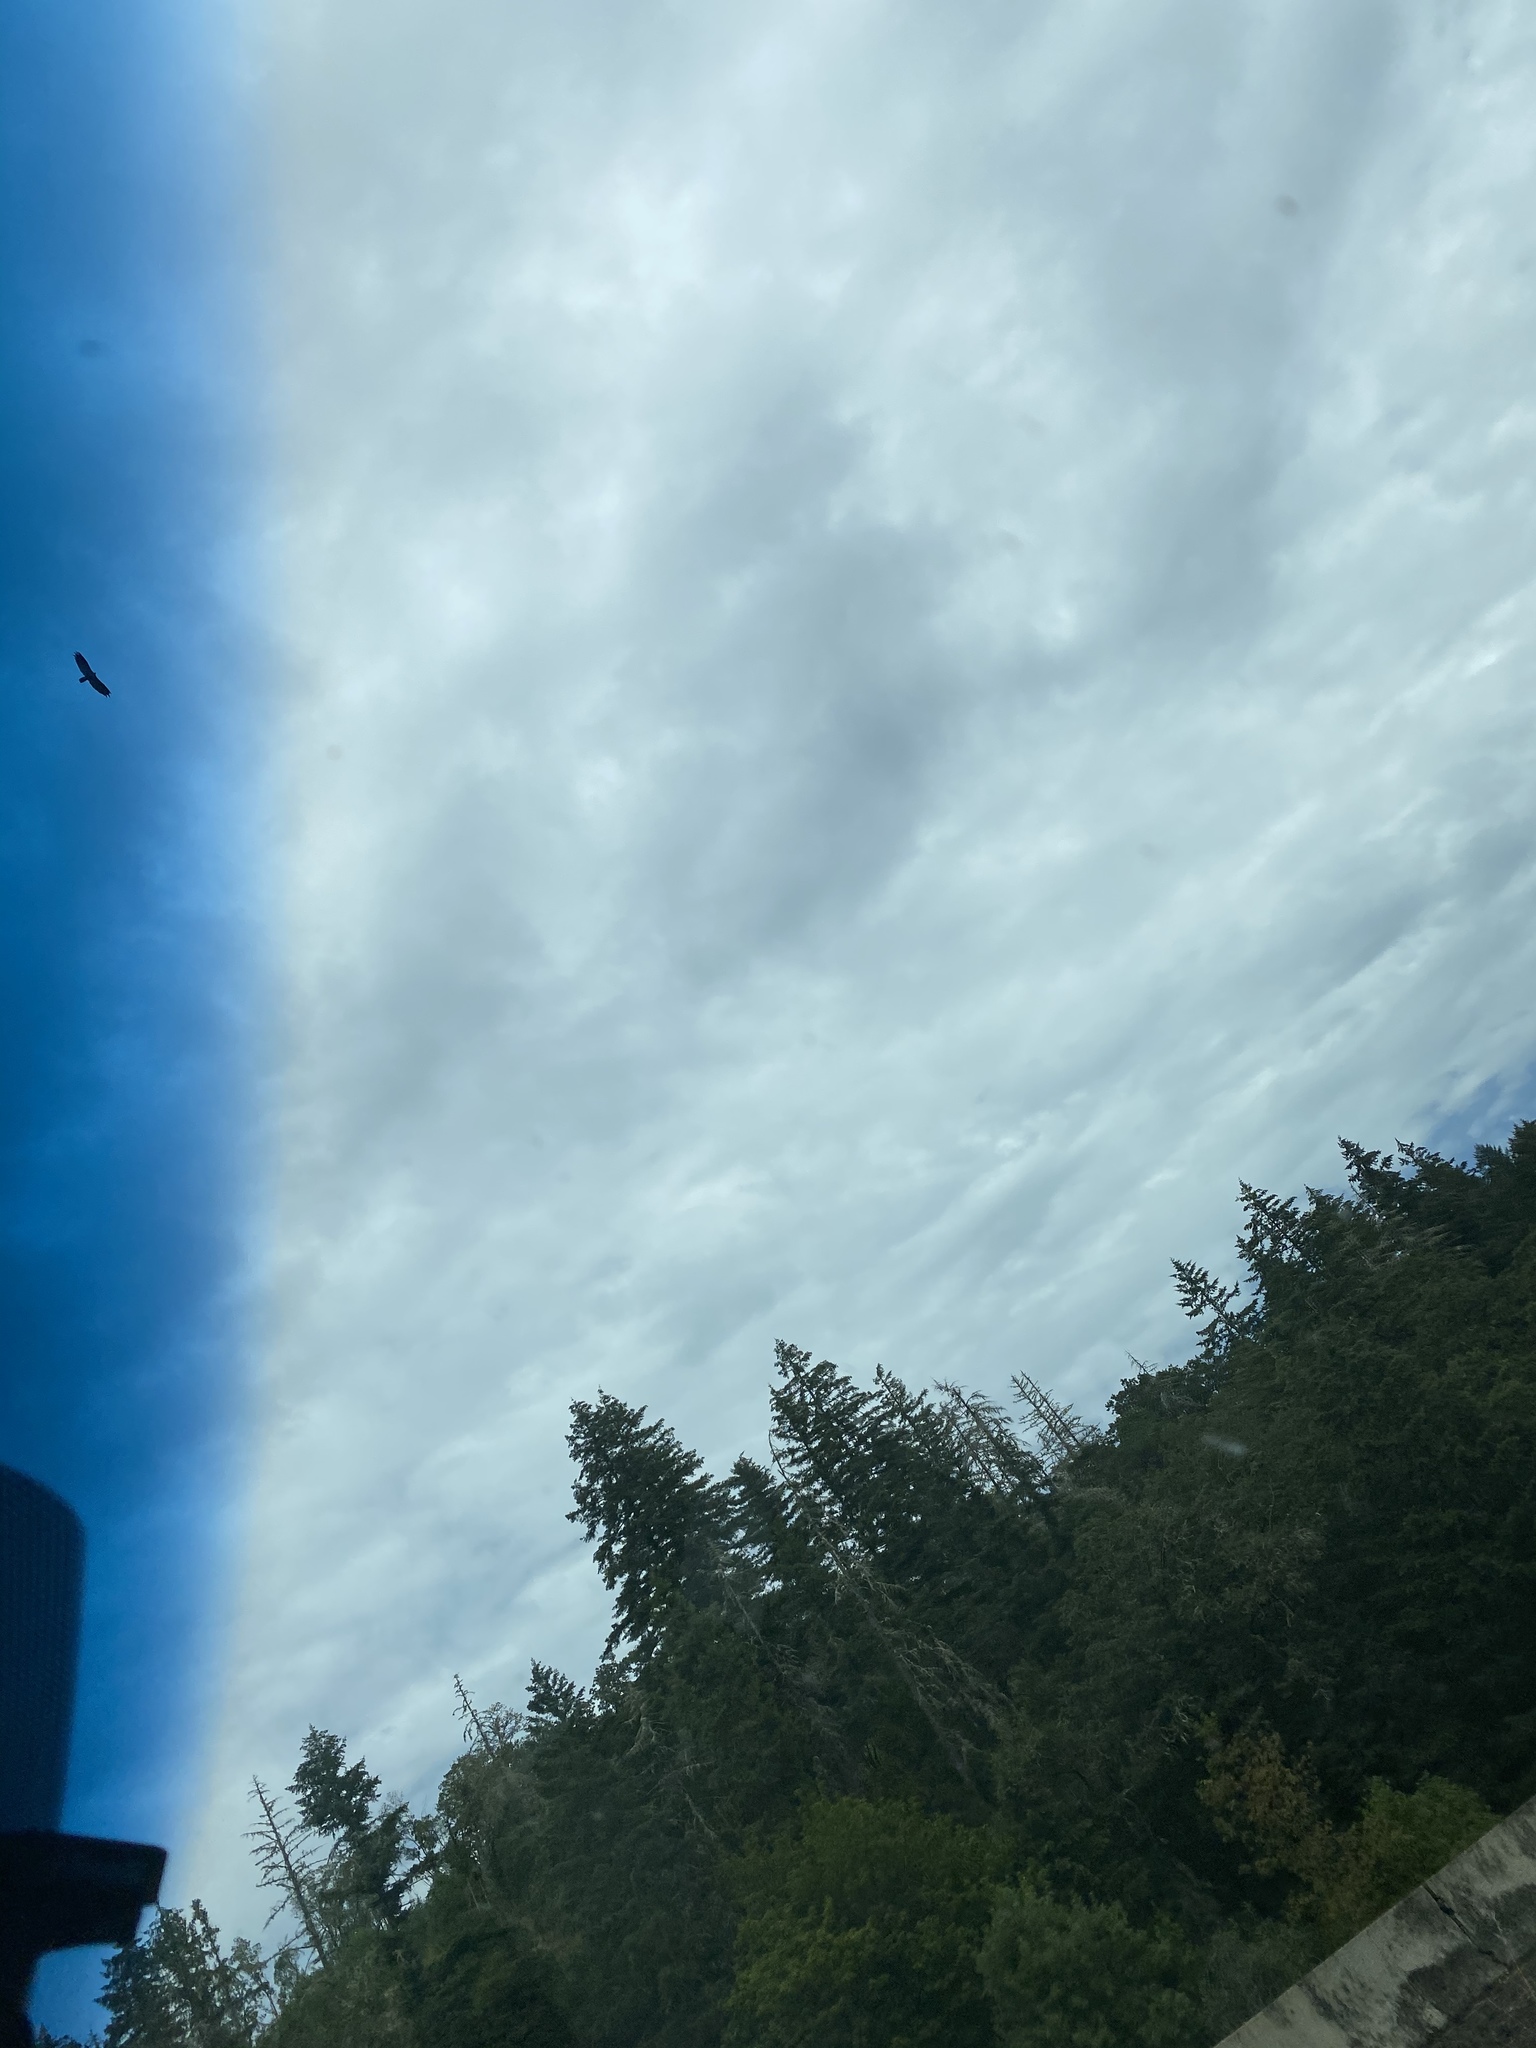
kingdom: Animalia
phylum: Chordata
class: Aves
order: Accipitriformes
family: Cathartidae
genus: Cathartes
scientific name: Cathartes aura
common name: Turkey vulture
